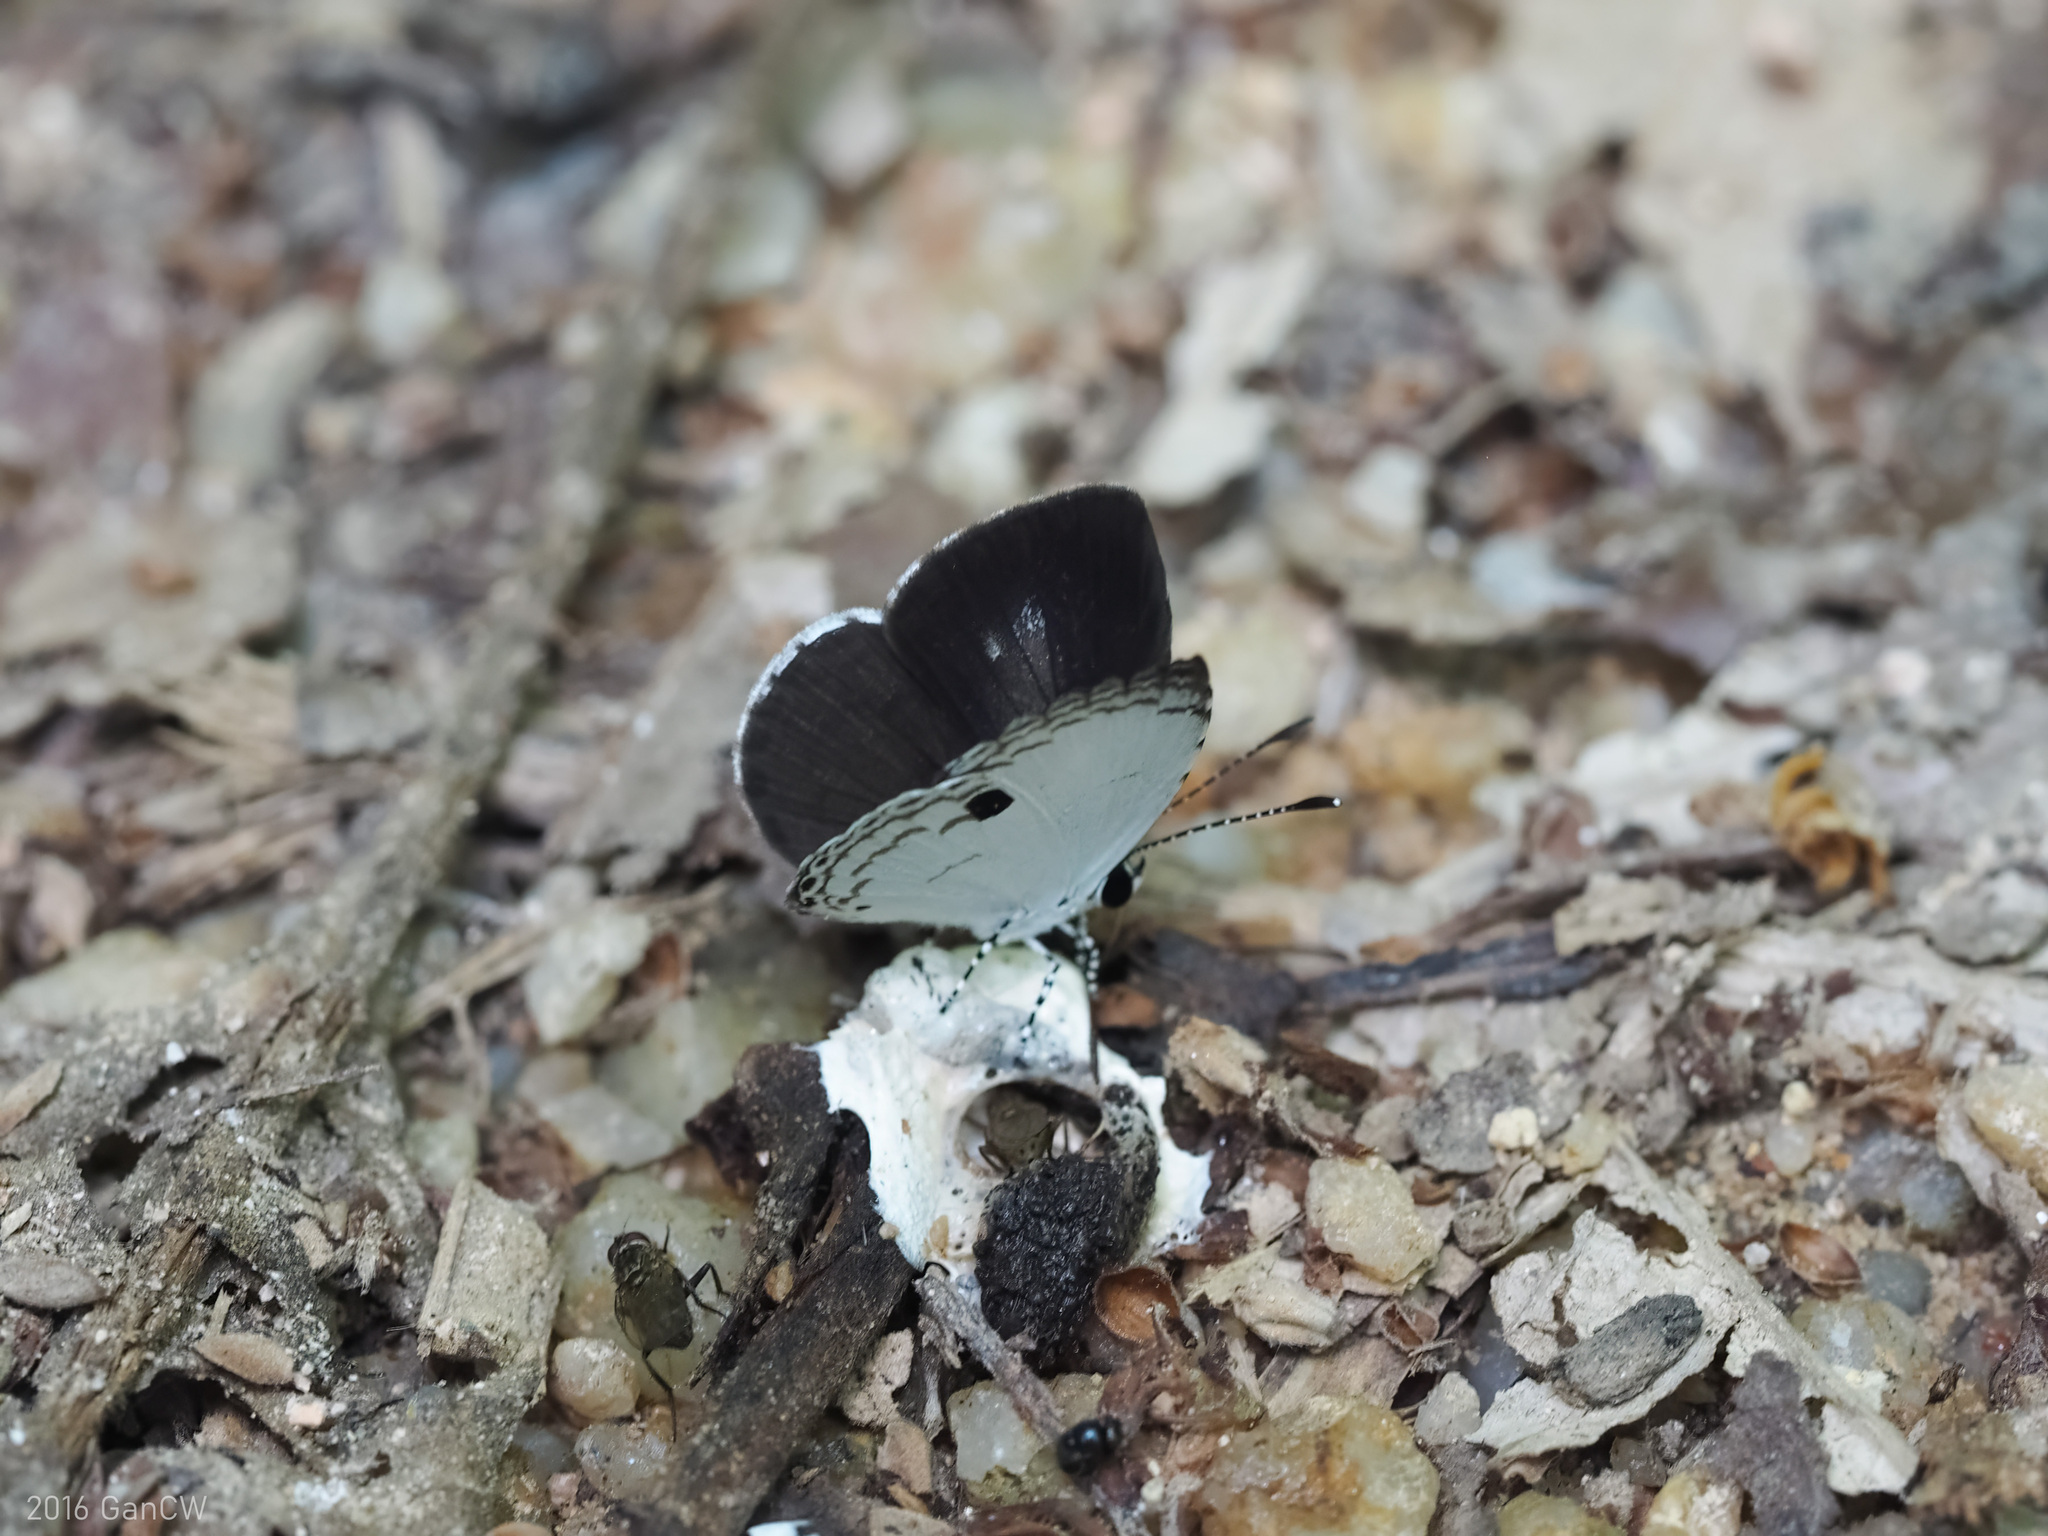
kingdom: Animalia
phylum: Arthropoda
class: Insecta
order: Lepidoptera
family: Lycaenidae
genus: Neopithecops
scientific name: Neopithecops zalmora
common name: Quaker
